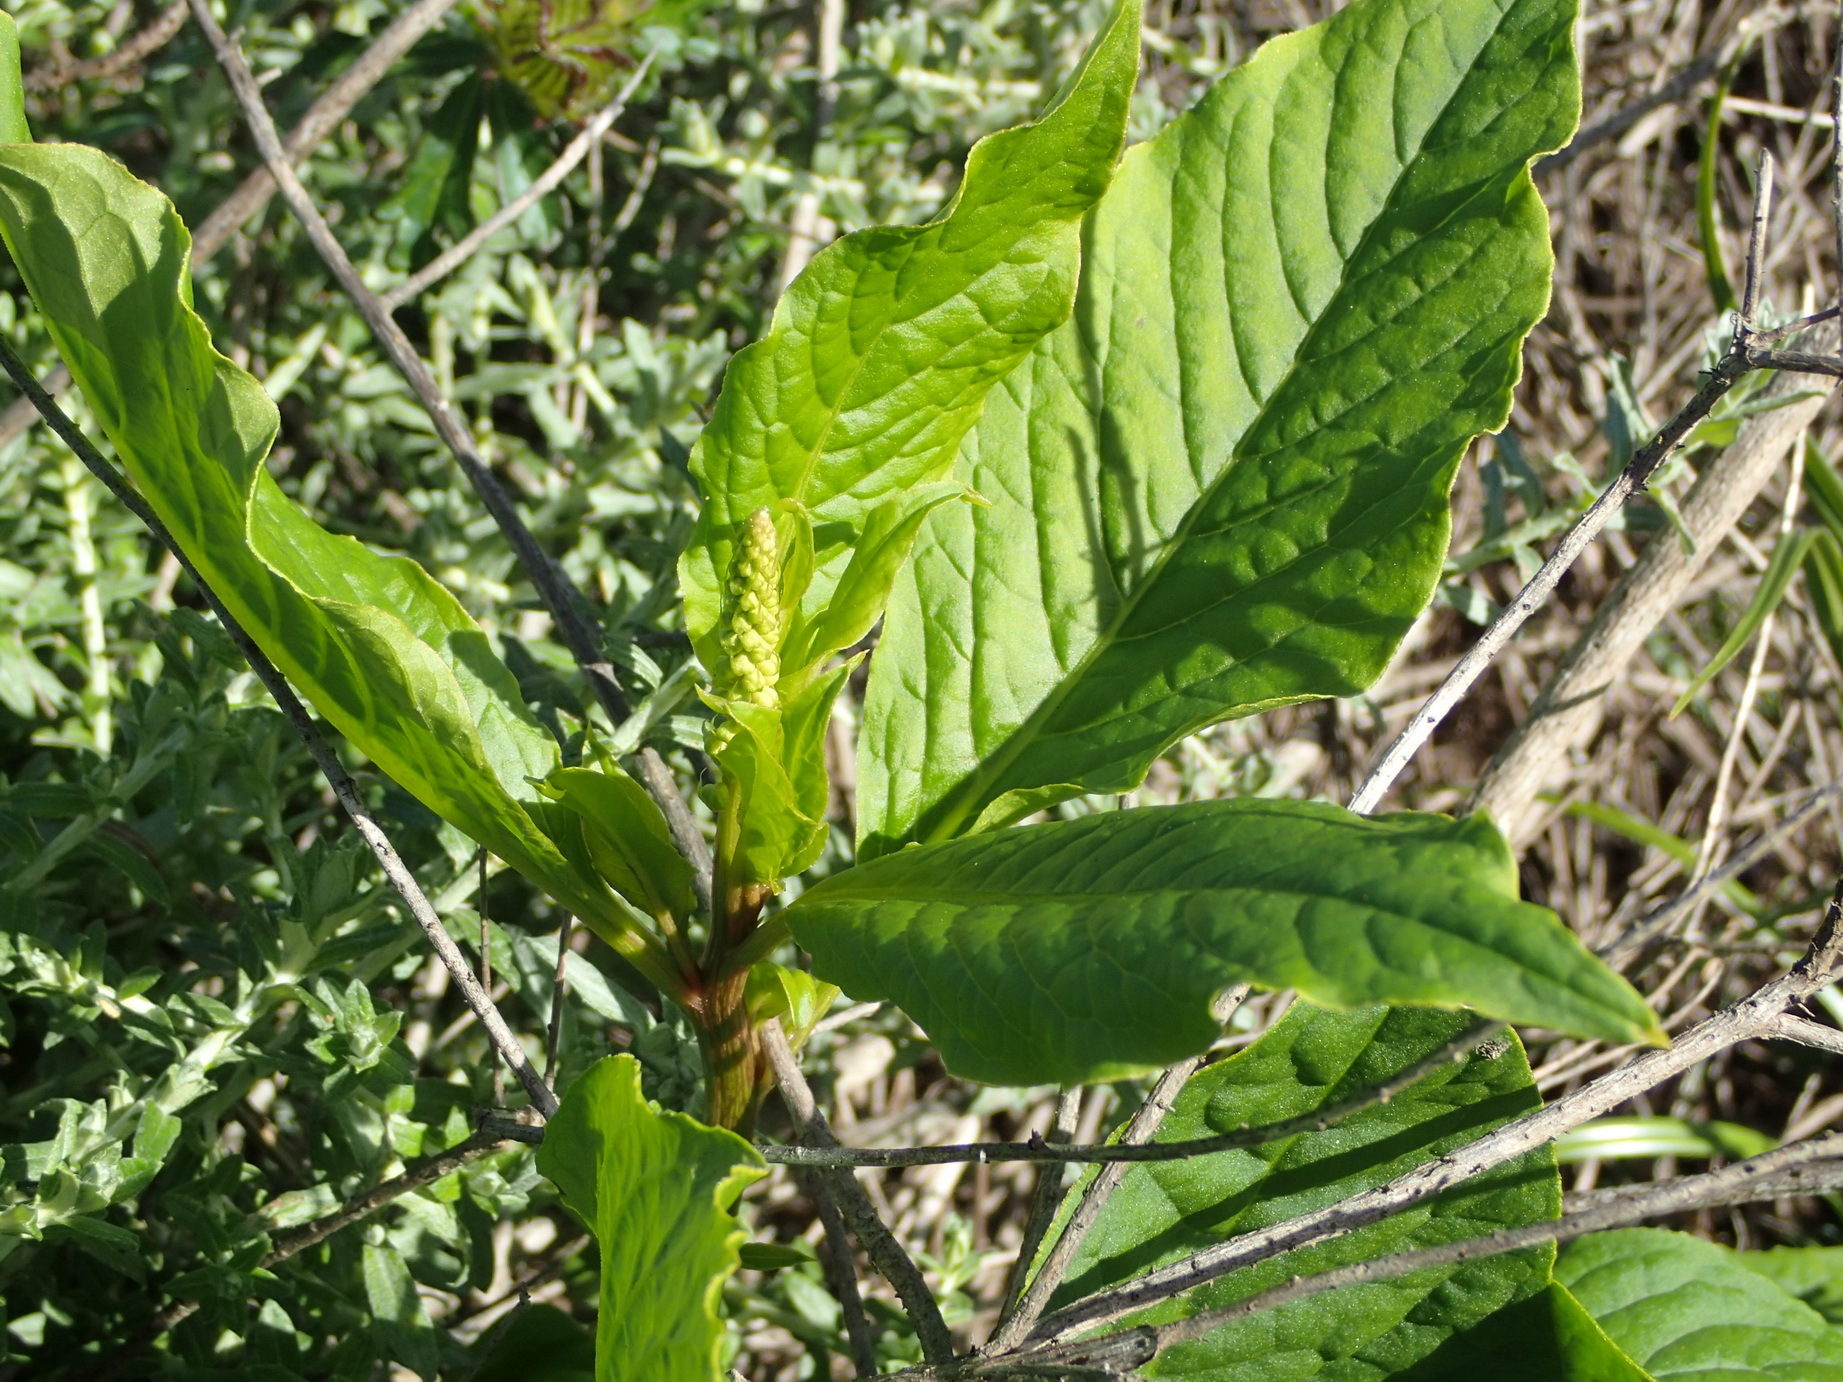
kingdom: Plantae
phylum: Tracheophyta
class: Magnoliopsida
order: Caryophyllales
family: Phytolaccaceae
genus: Phytolacca
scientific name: Phytolacca icosandra
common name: Button pokeweed
